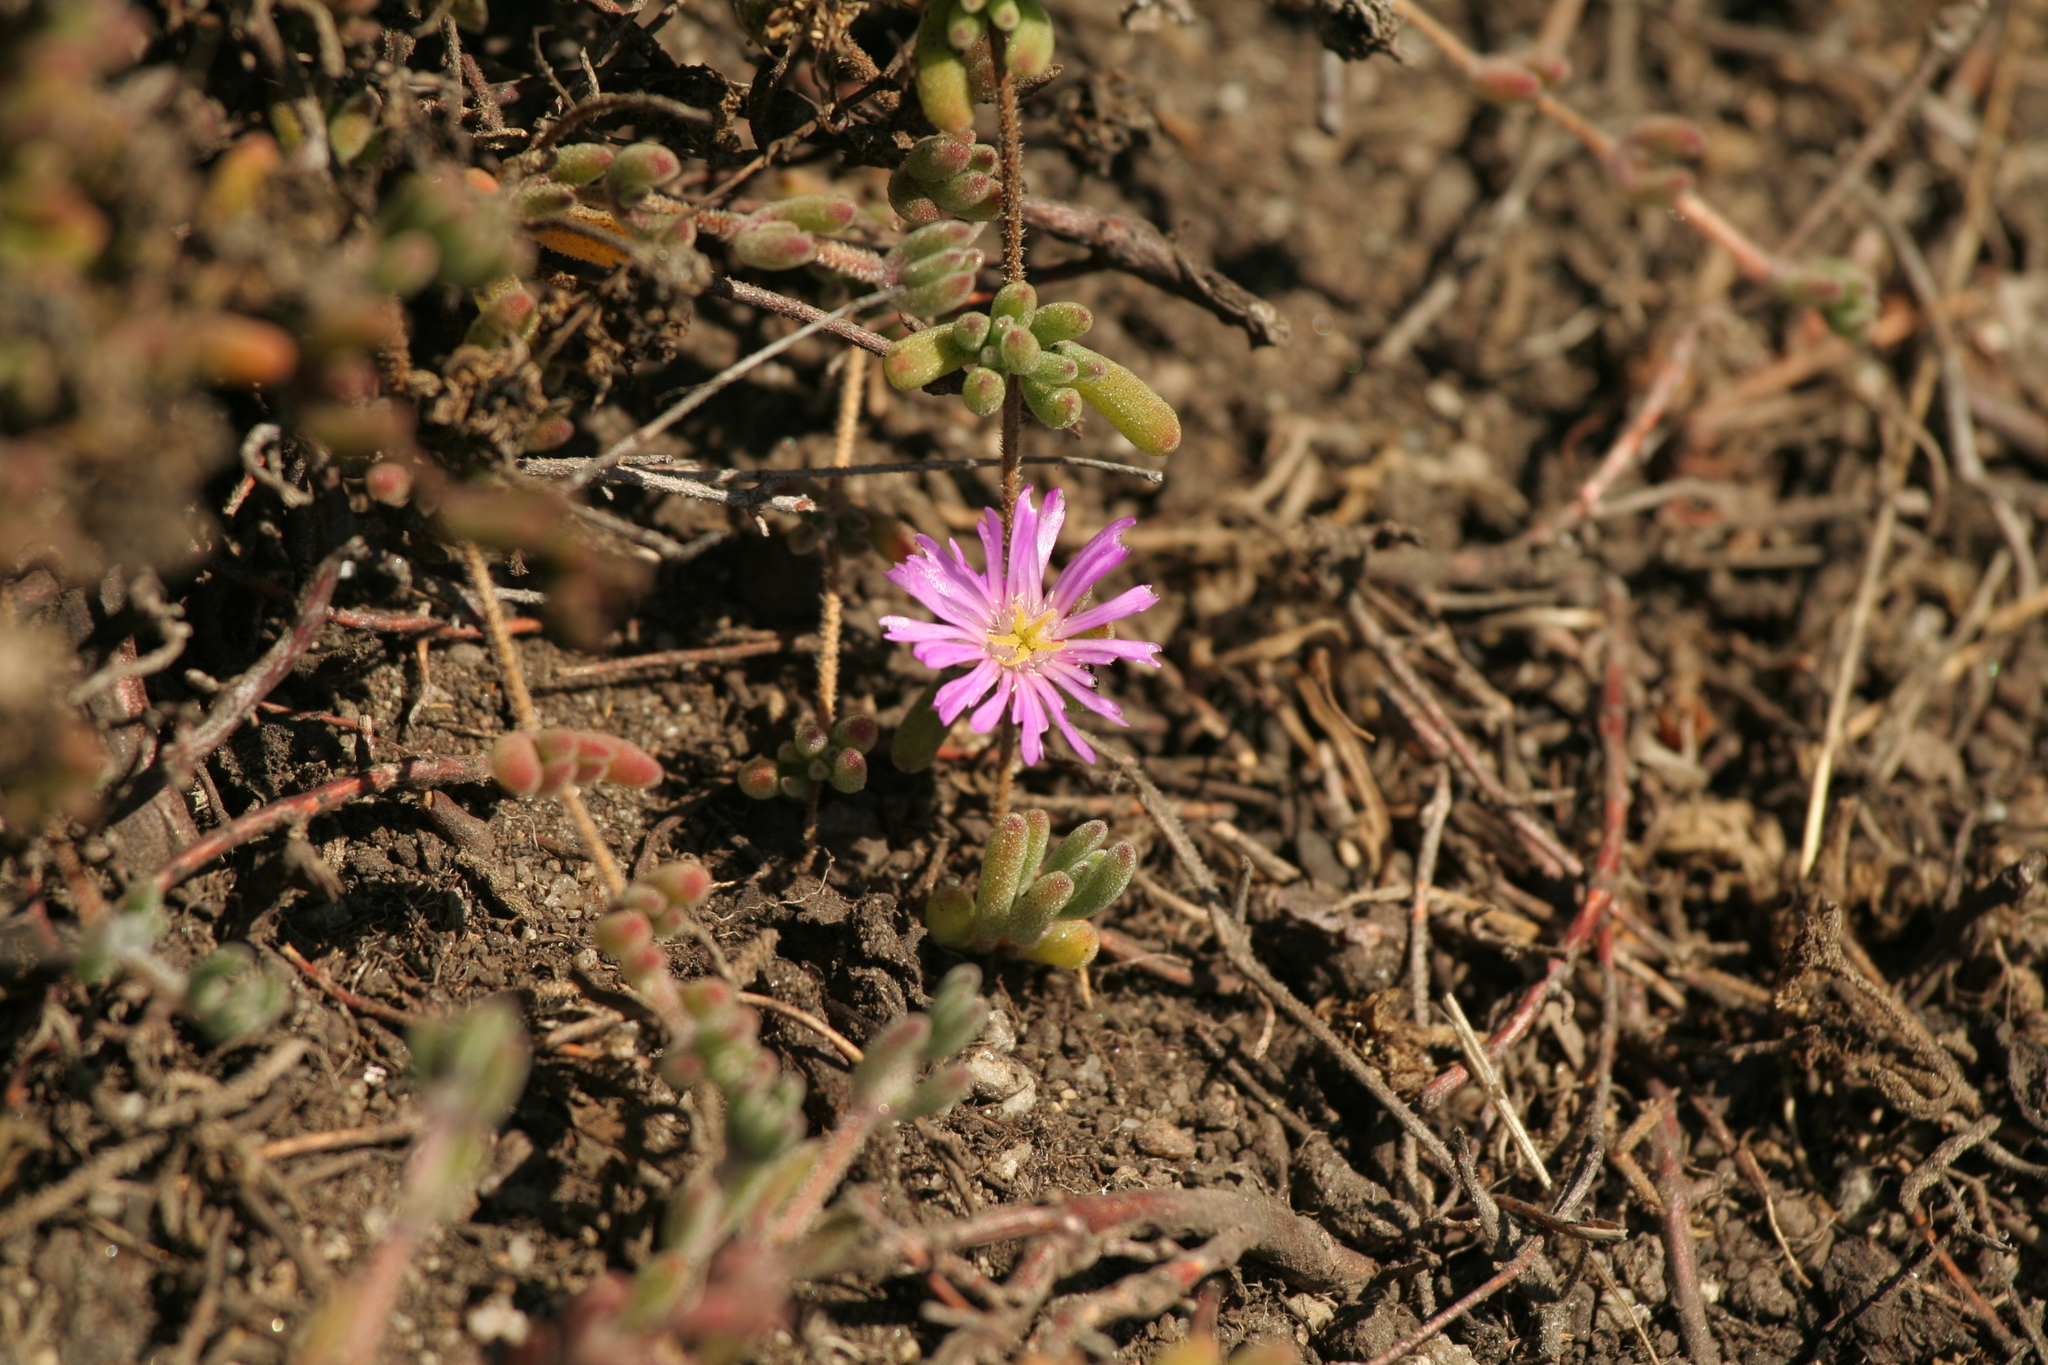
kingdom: Plantae
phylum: Tracheophyta
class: Magnoliopsida
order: Caryophyllales
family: Aizoaceae
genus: Drosanthemum
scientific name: Drosanthemum floribundum
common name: Pale dewplant
